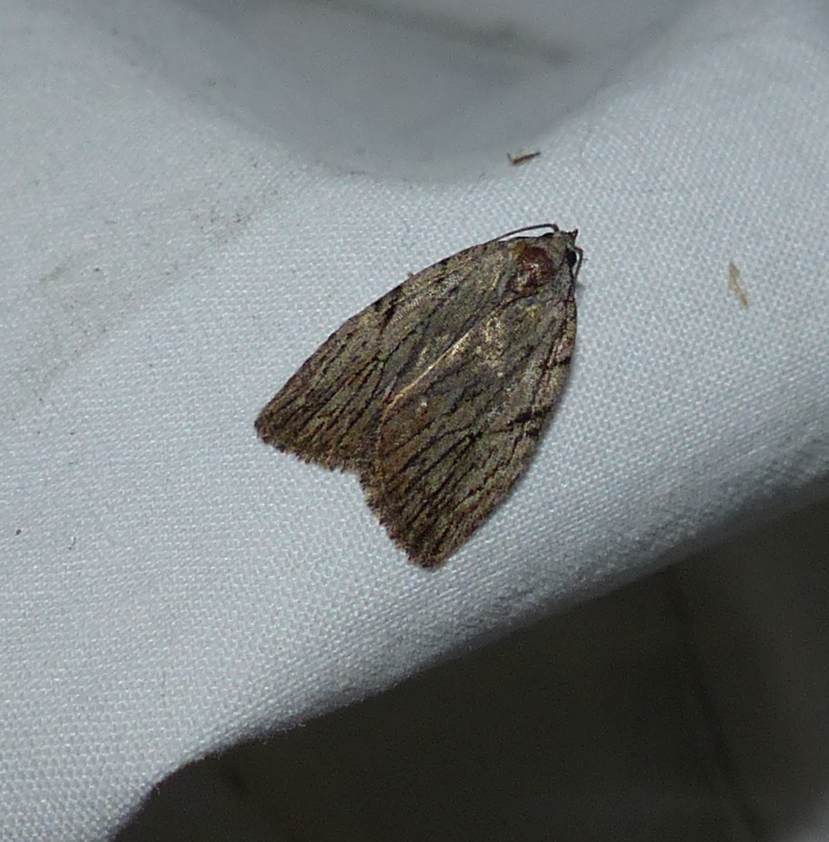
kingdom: Animalia
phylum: Arthropoda
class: Insecta
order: Lepidoptera
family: Noctuidae
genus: Balsa
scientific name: Balsa tristrigella
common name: Three-lined balsa moth
